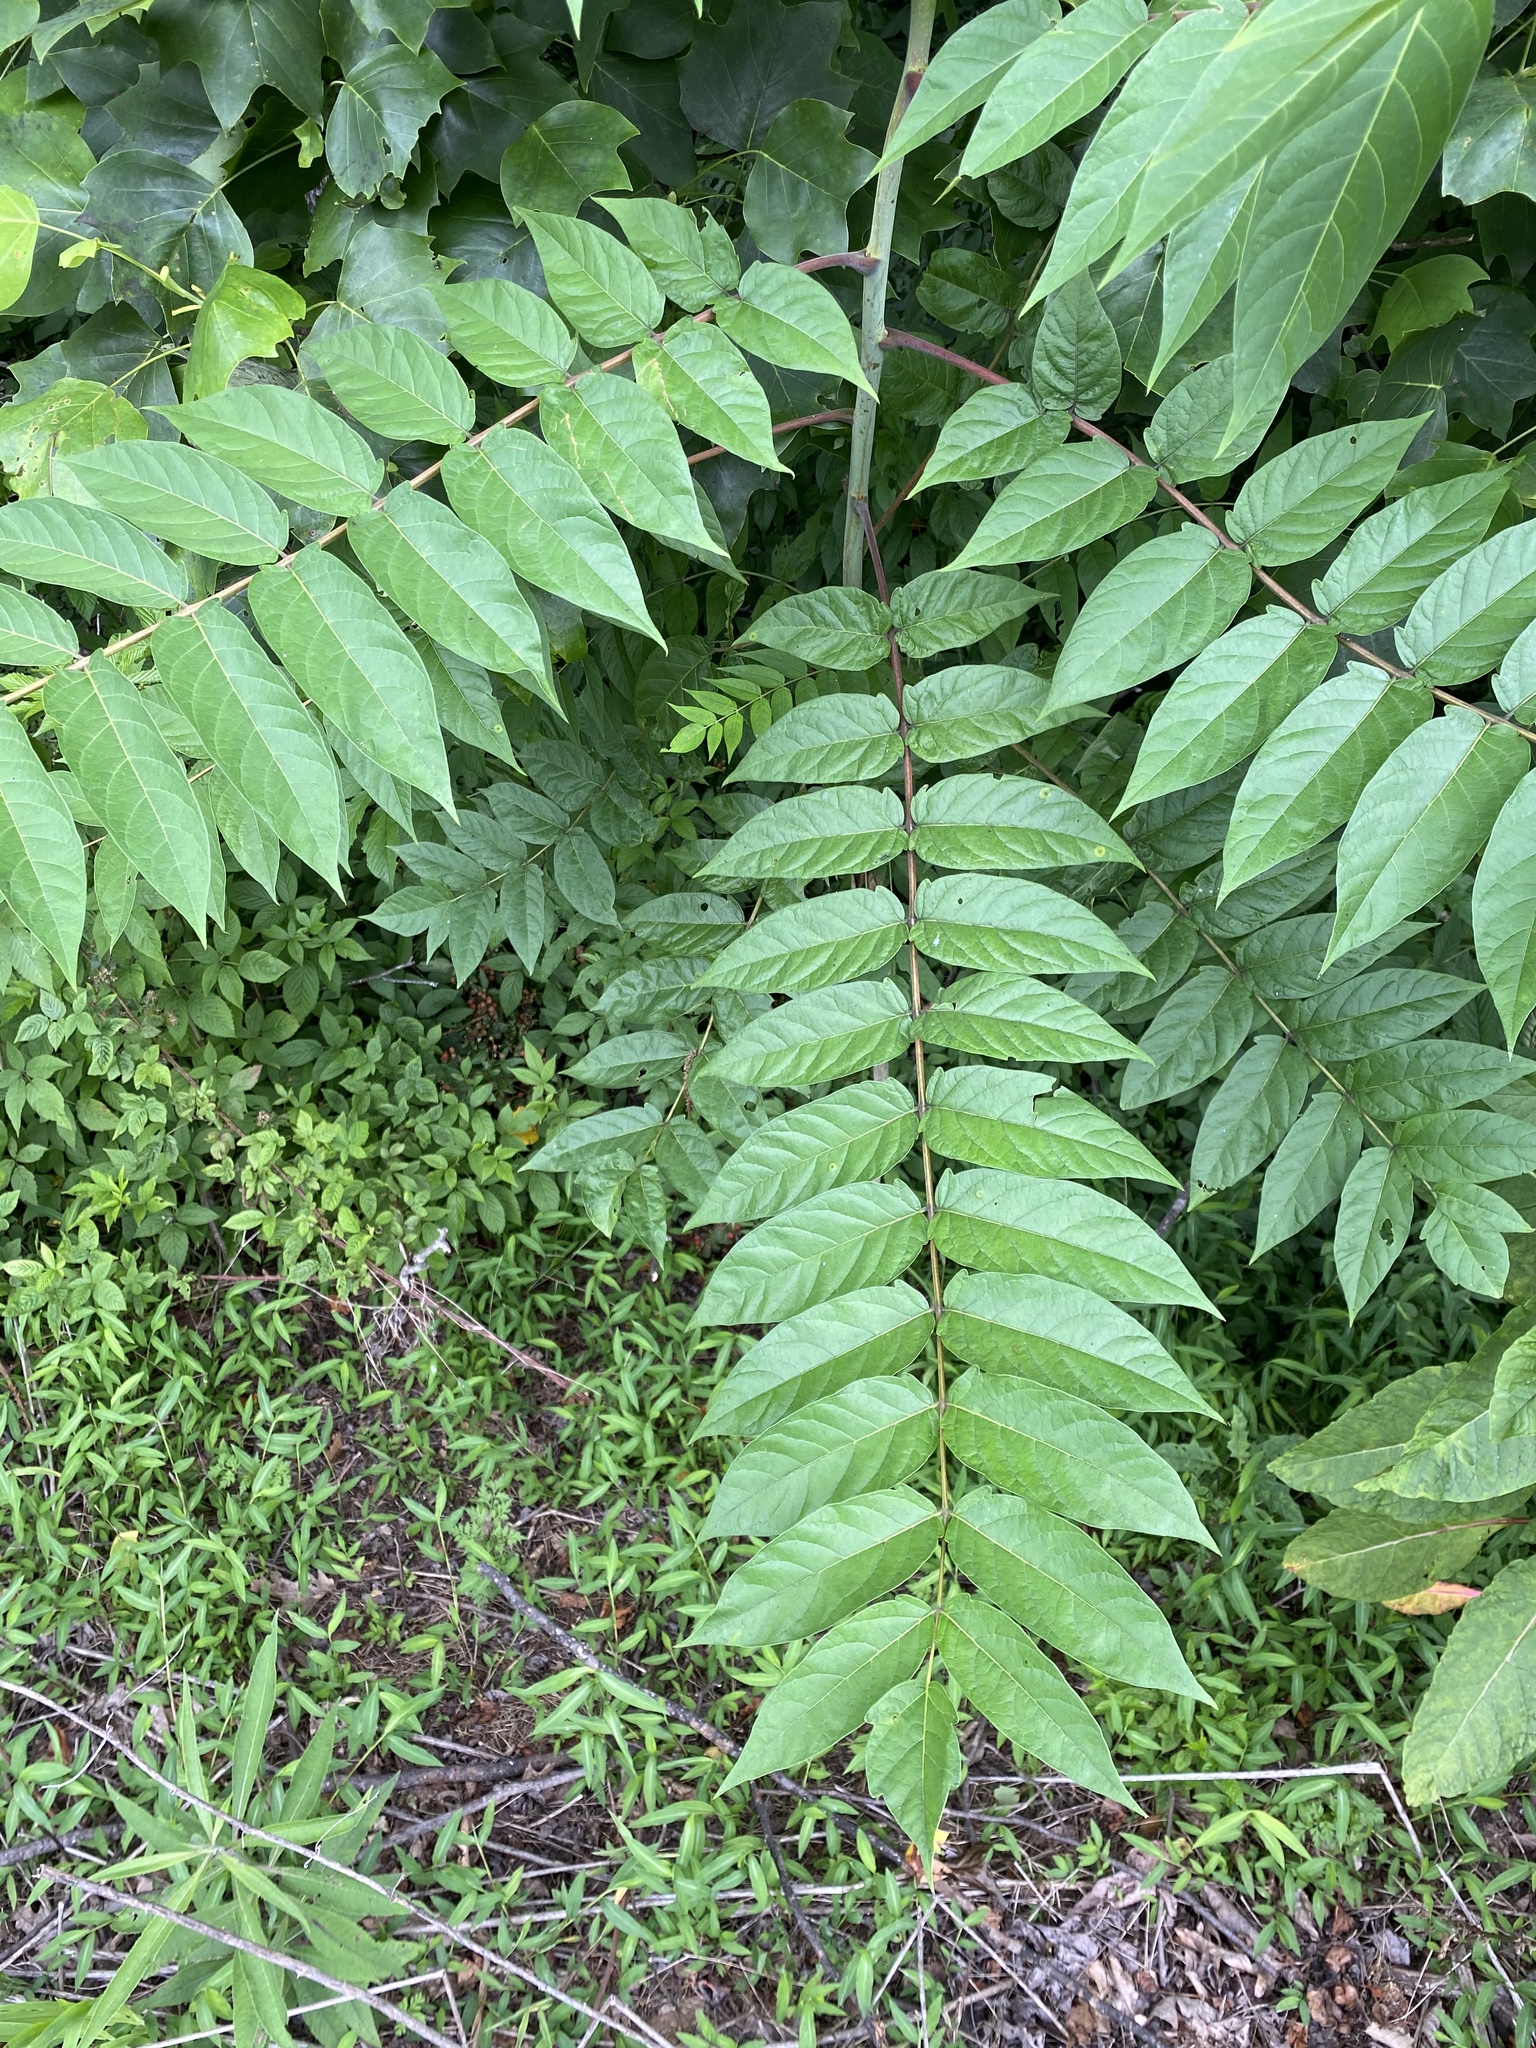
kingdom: Plantae
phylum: Tracheophyta
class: Magnoliopsida
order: Sapindales
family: Simaroubaceae
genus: Ailanthus
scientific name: Ailanthus altissima
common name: Tree-of-heaven
